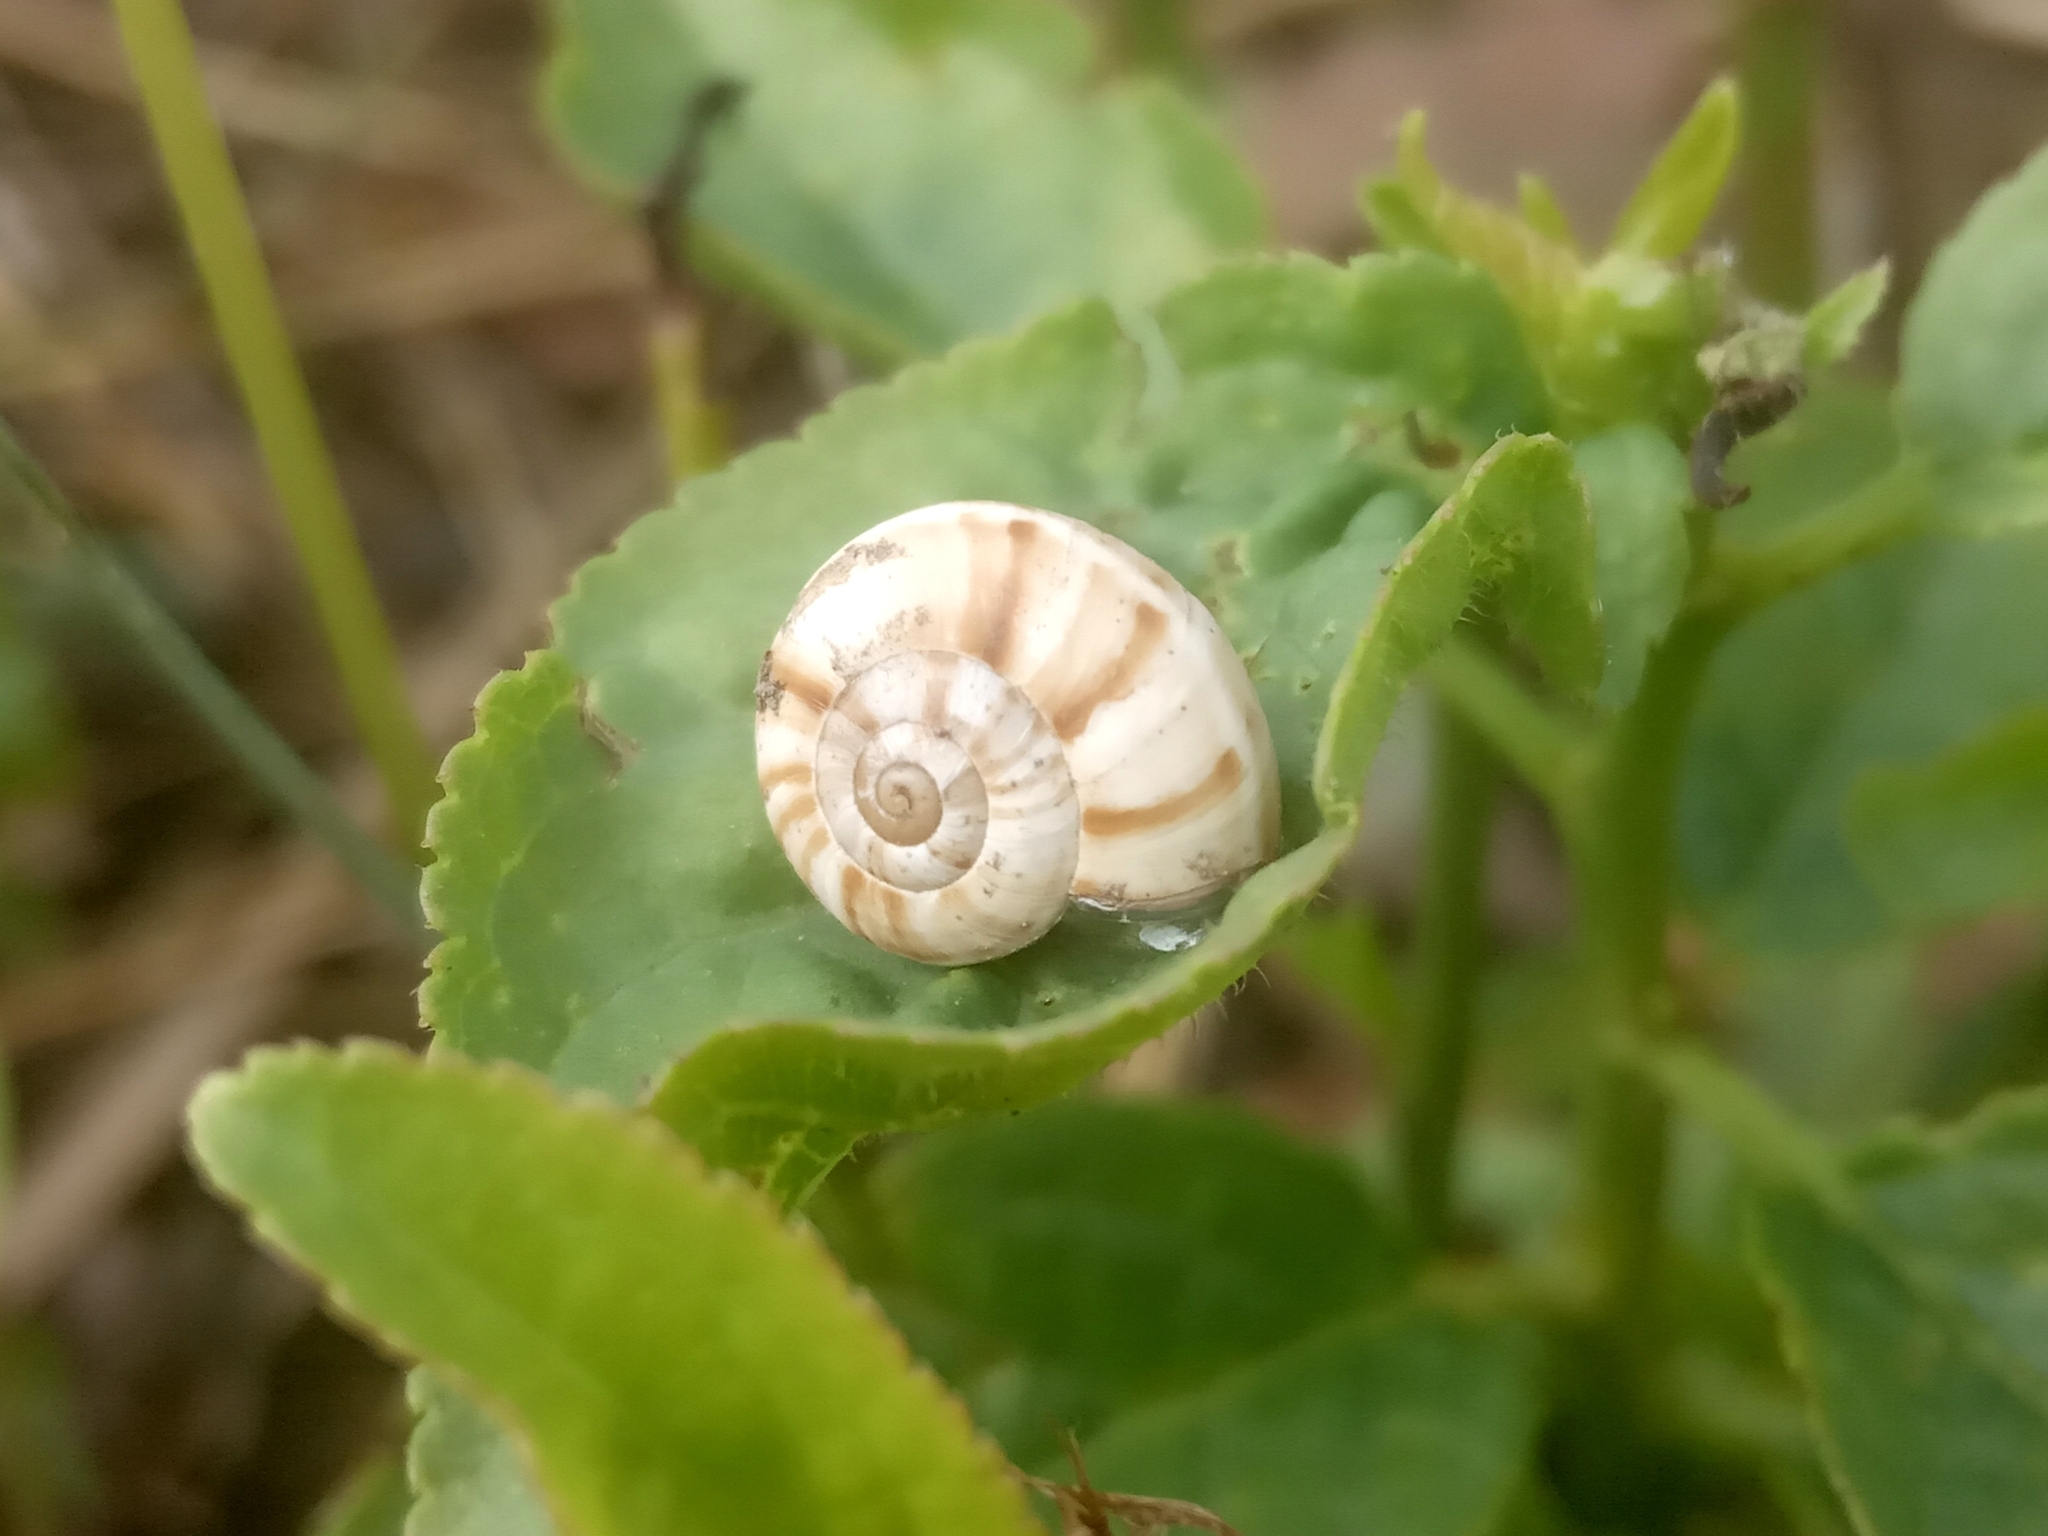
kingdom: Animalia
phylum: Mollusca
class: Gastropoda
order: Stylommatophora
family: Geomitridae
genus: Xeropicta
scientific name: Xeropicta derbentina
